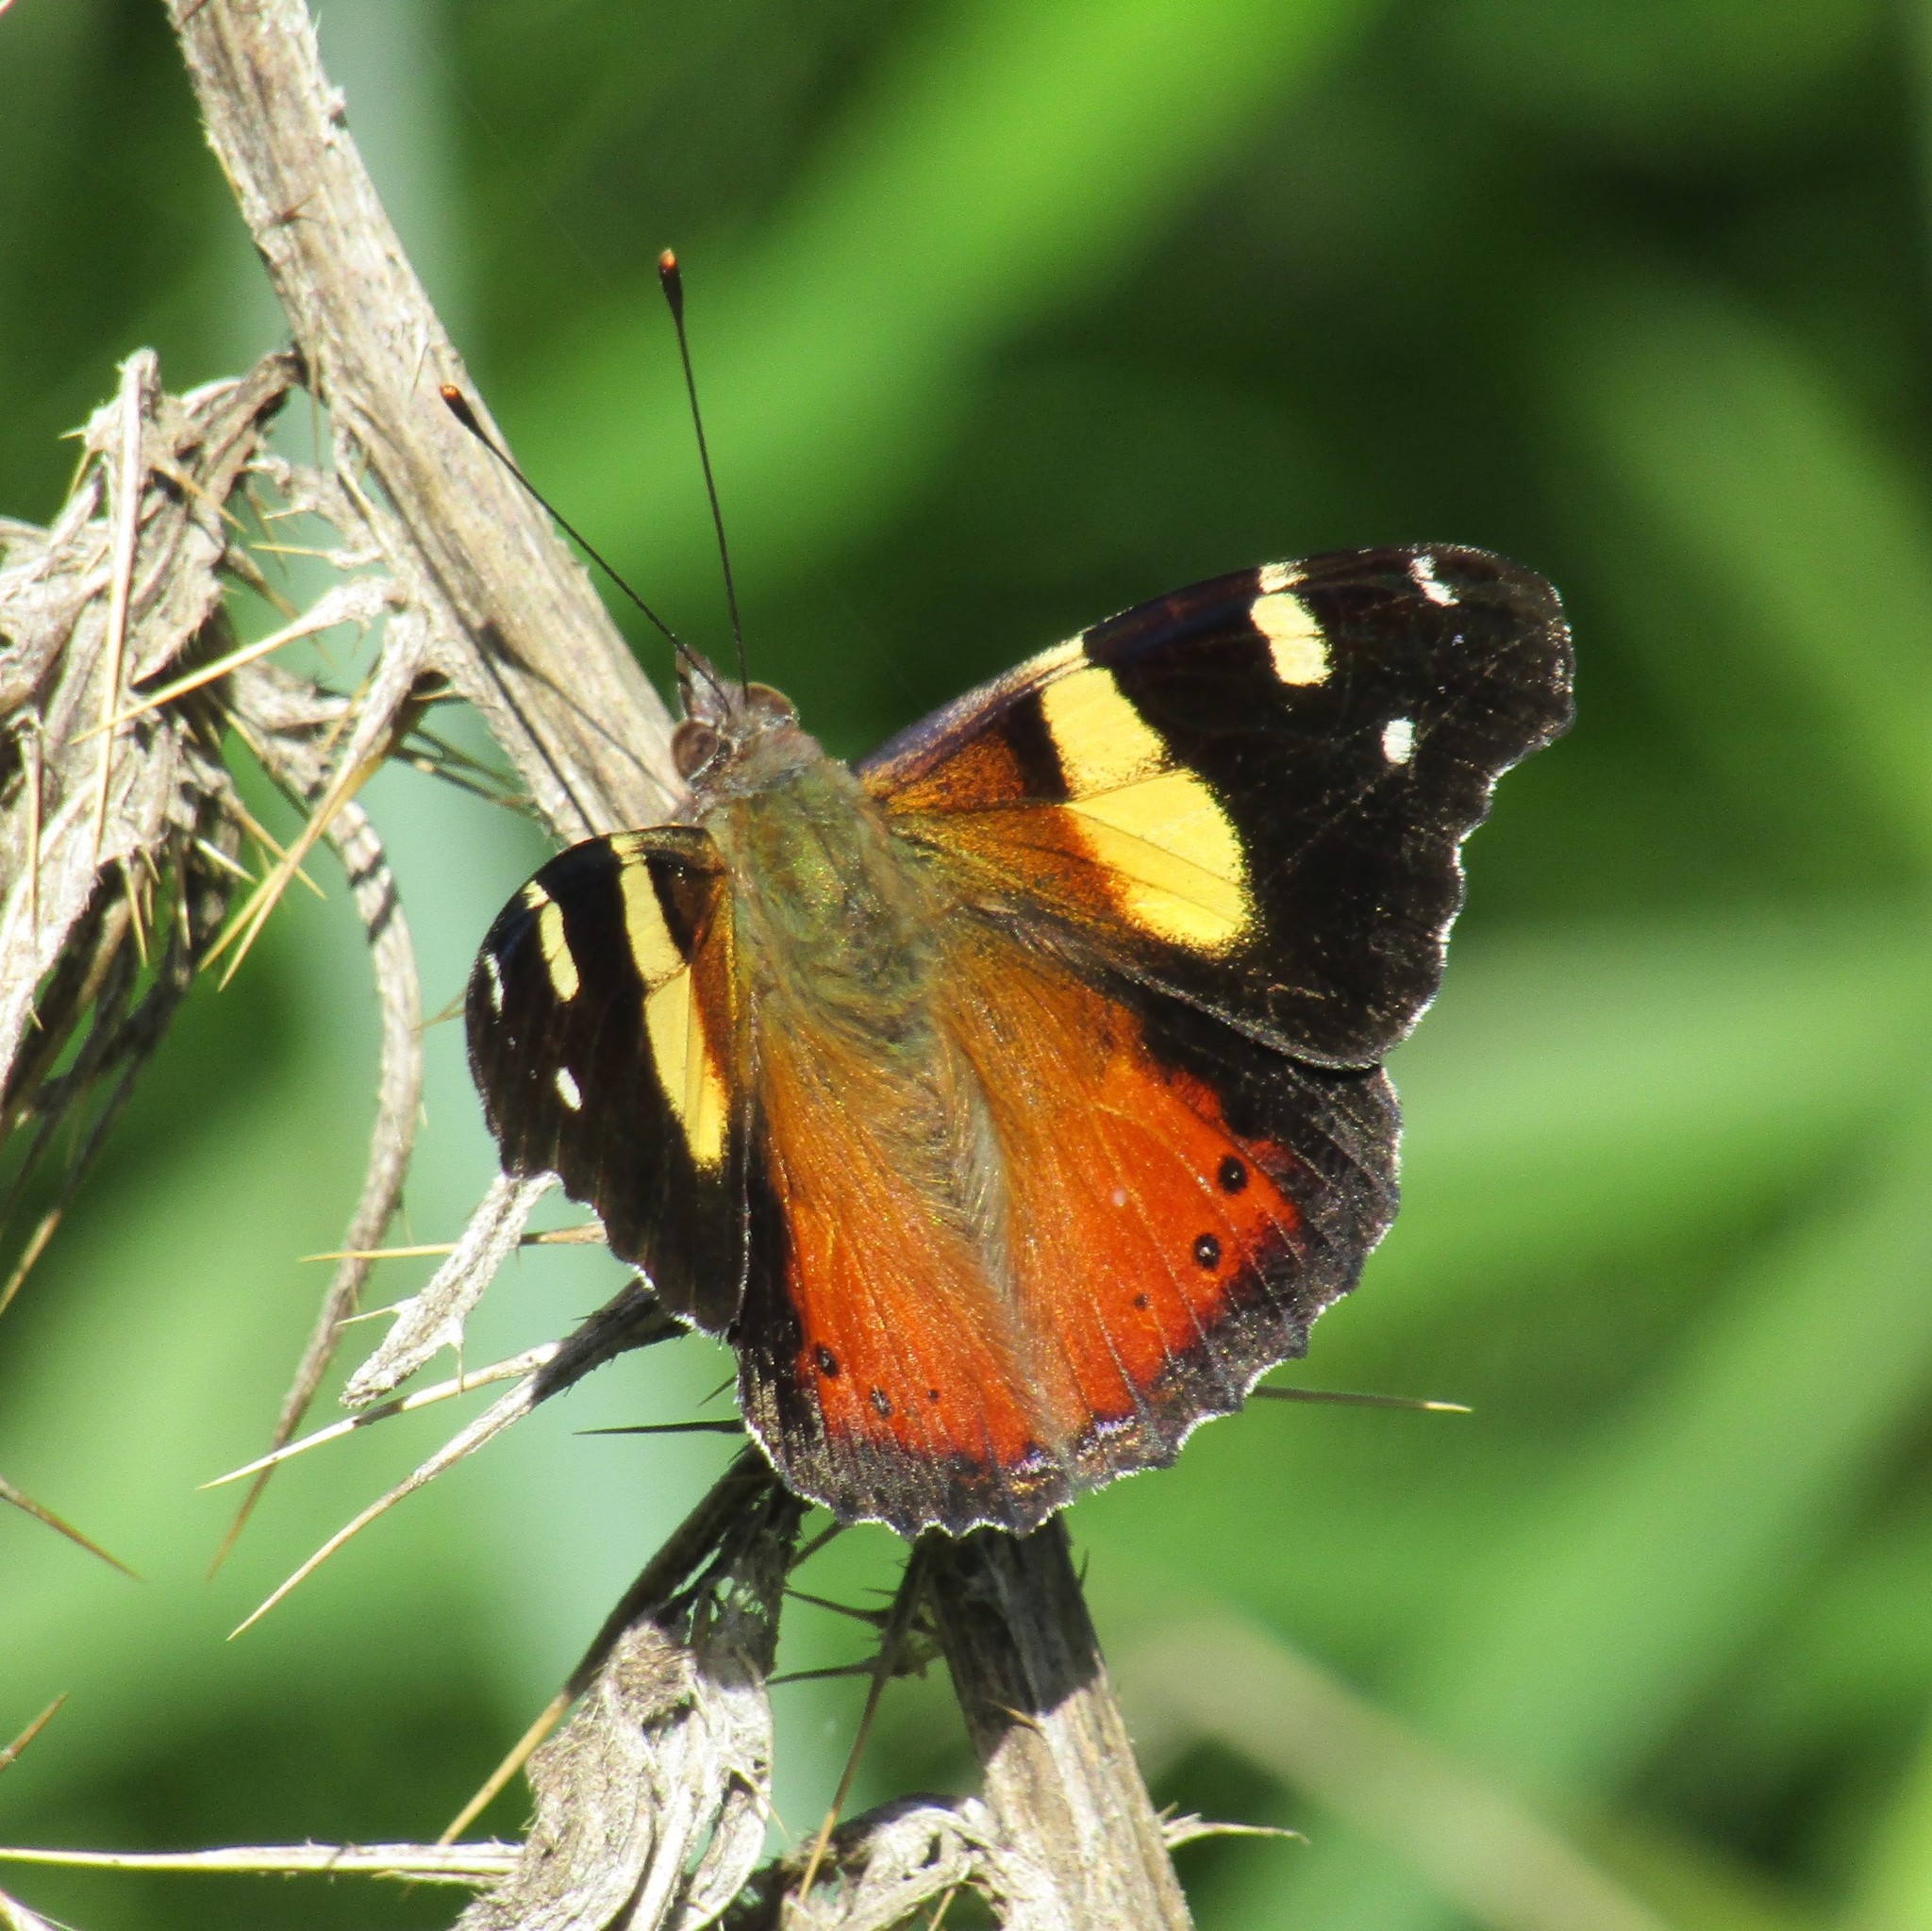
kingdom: Animalia
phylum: Arthropoda
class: Insecta
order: Lepidoptera
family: Nymphalidae
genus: Vanessa
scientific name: Vanessa itea
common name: Yellow admiral
